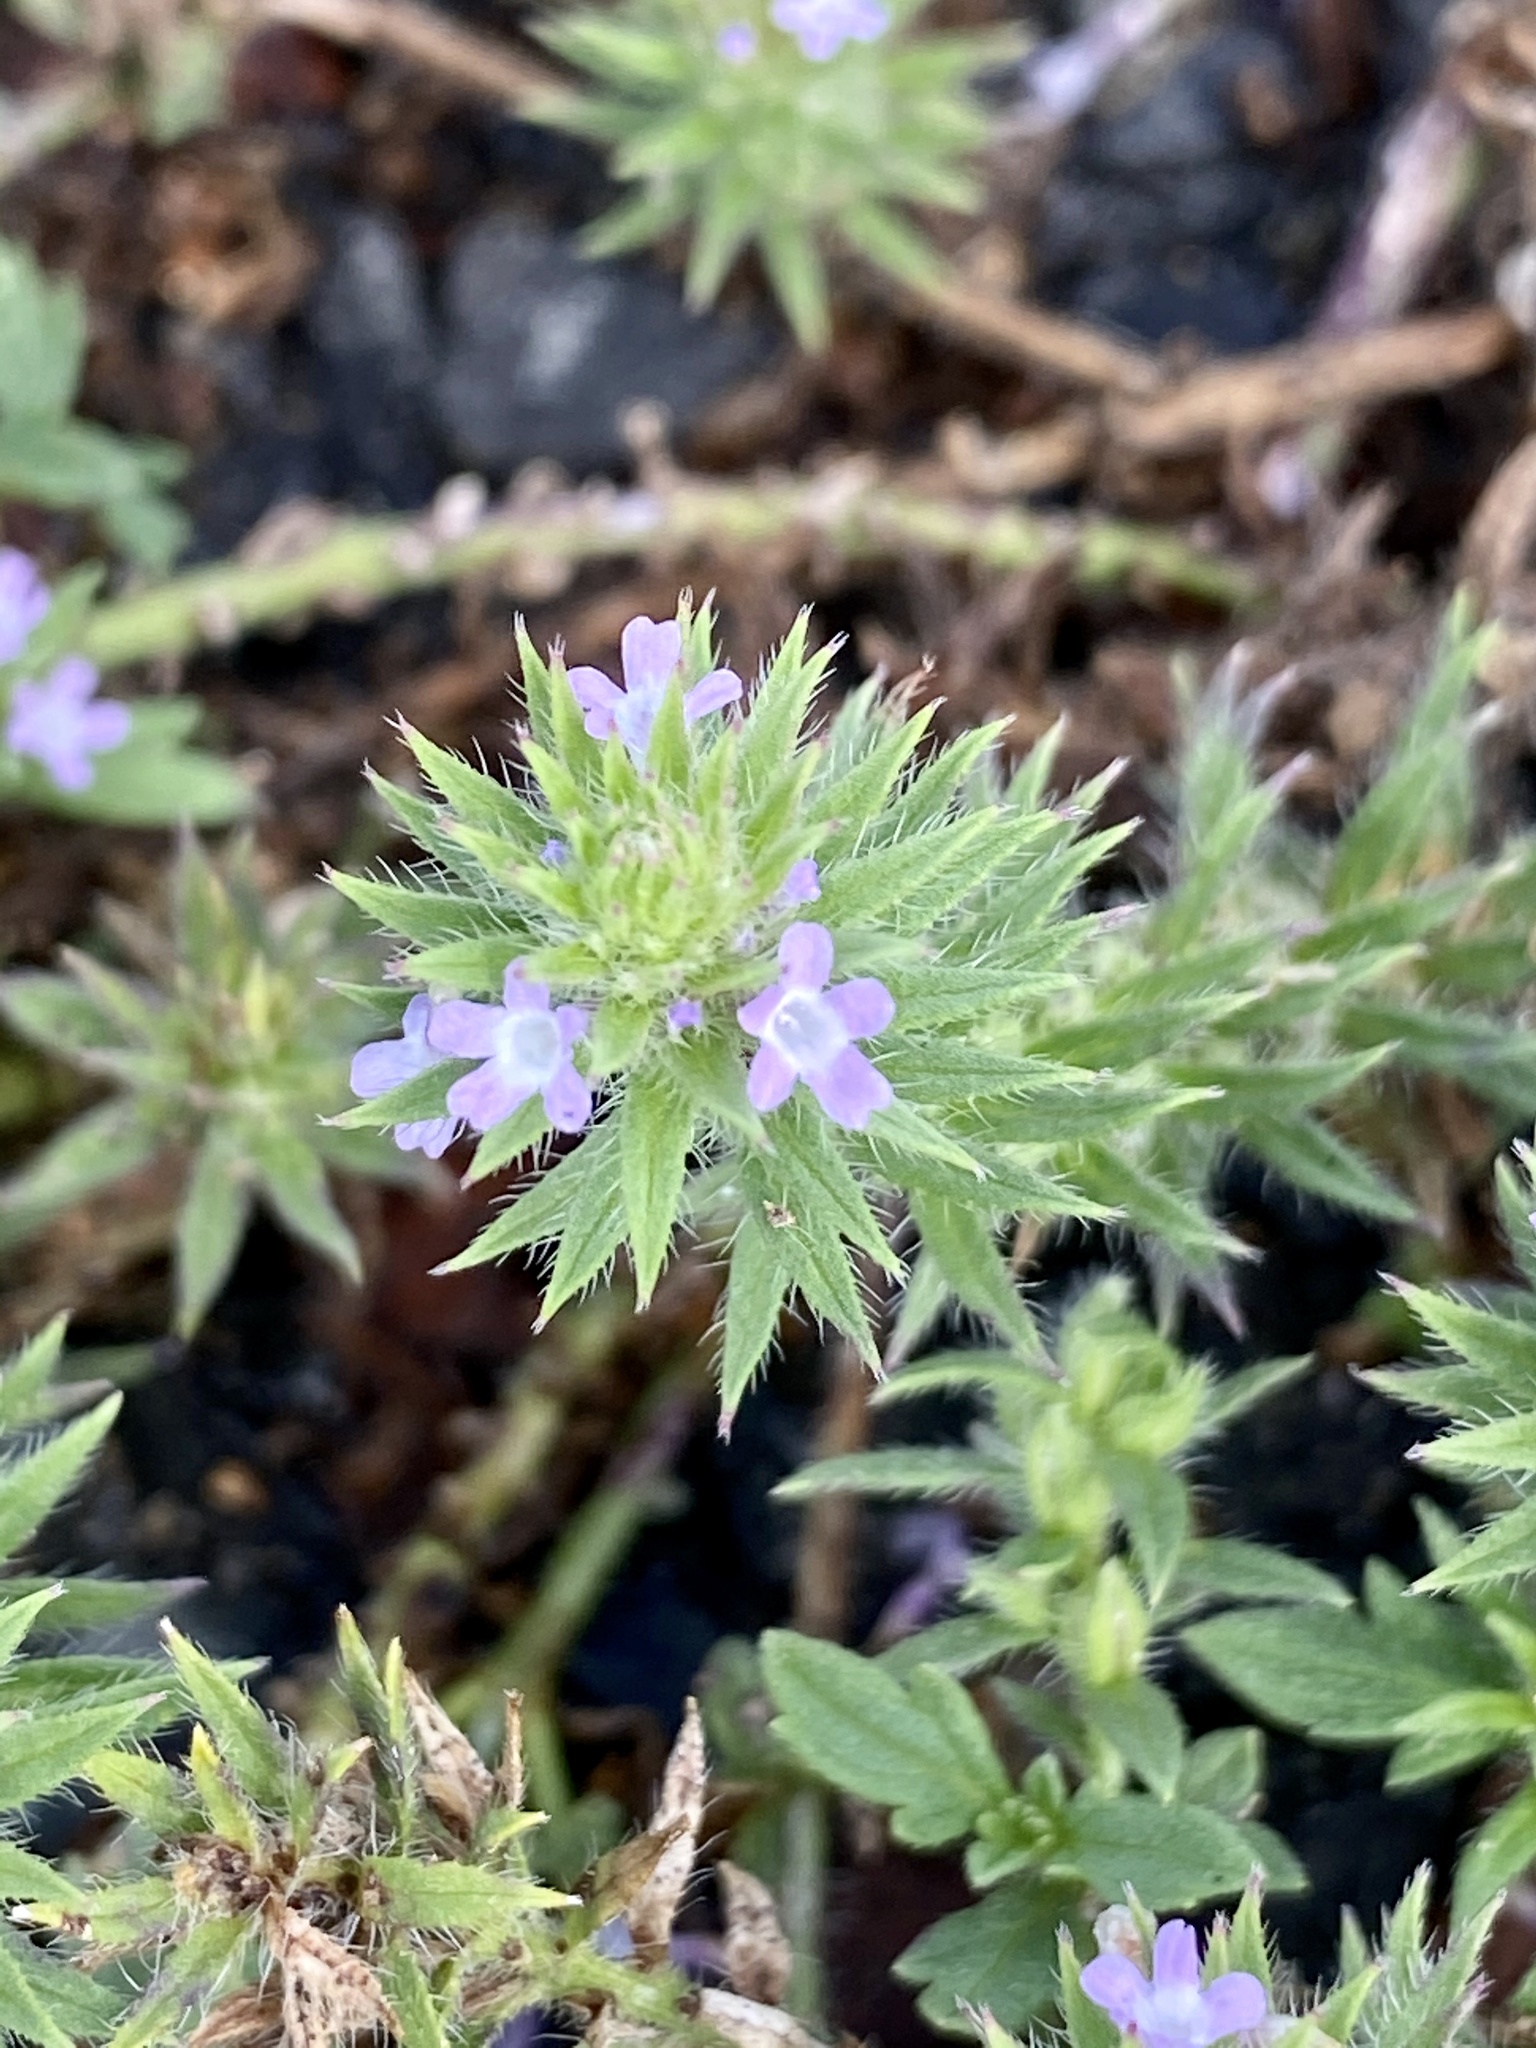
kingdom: Plantae
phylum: Tracheophyta
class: Magnoliopsida
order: Lamiales
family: Verbenaceae
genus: Verbena
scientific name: Verbena bracteata
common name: Bracted vervain
